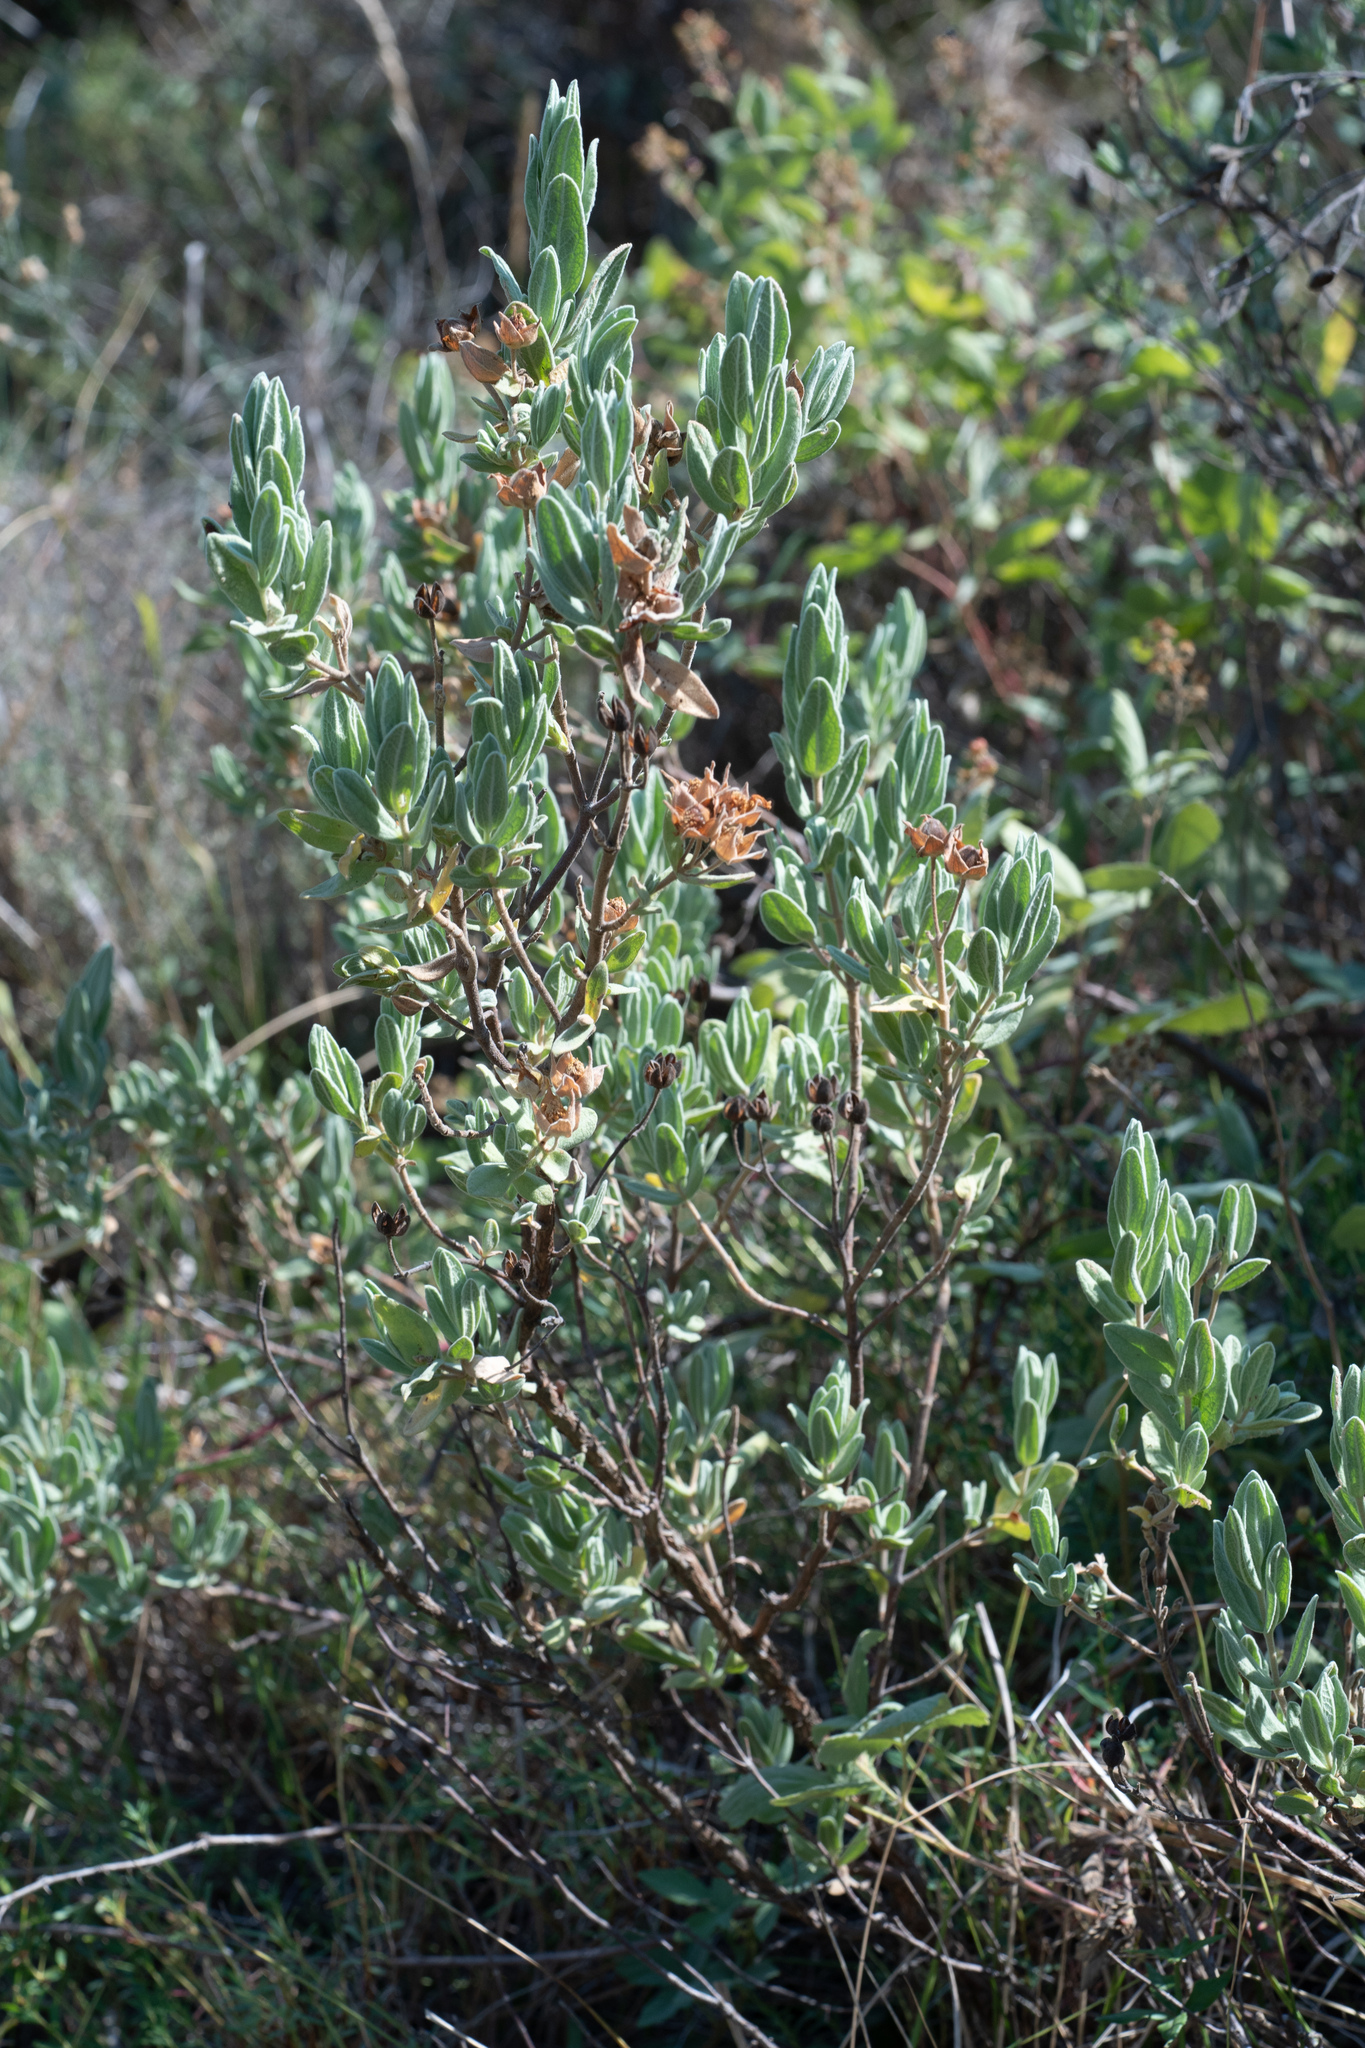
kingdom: Plantae
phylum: Tracheophyta
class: Magnoliopsida
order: Malvales
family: Cistaceae
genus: Cistus
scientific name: Cistus albidus
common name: White-leaf rock-rose
